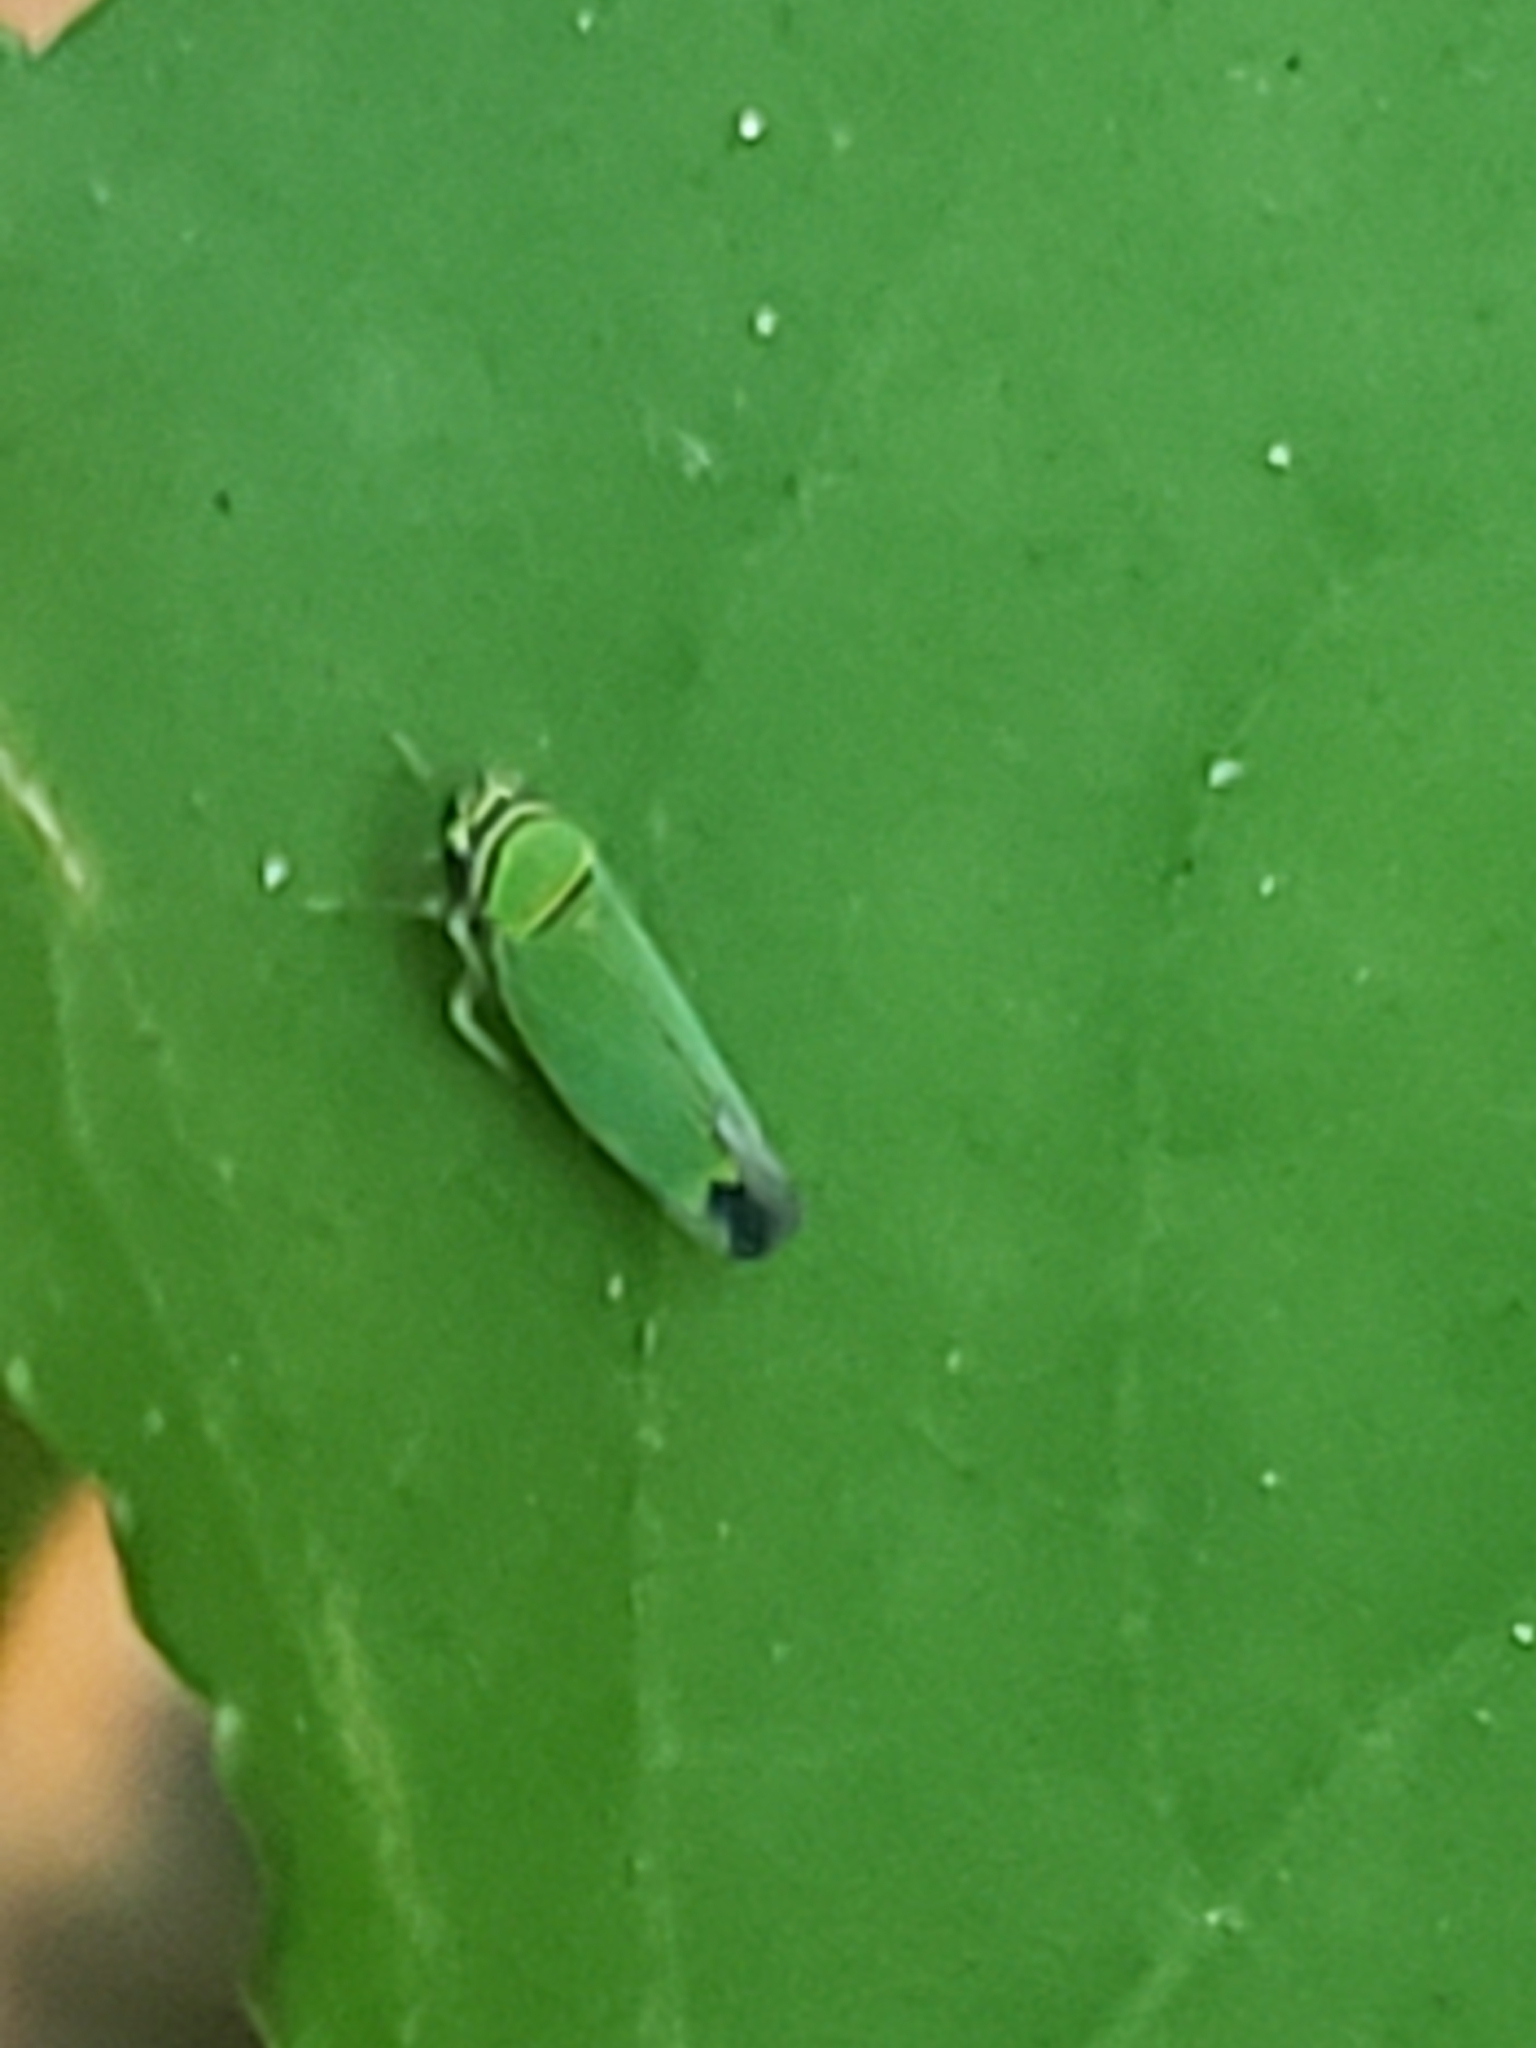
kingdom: Animalia
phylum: Arthropoda
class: Insecta
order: Hemiptera
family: Cicadellidae
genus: Tylozygus
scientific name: Tylozygus geometricus
